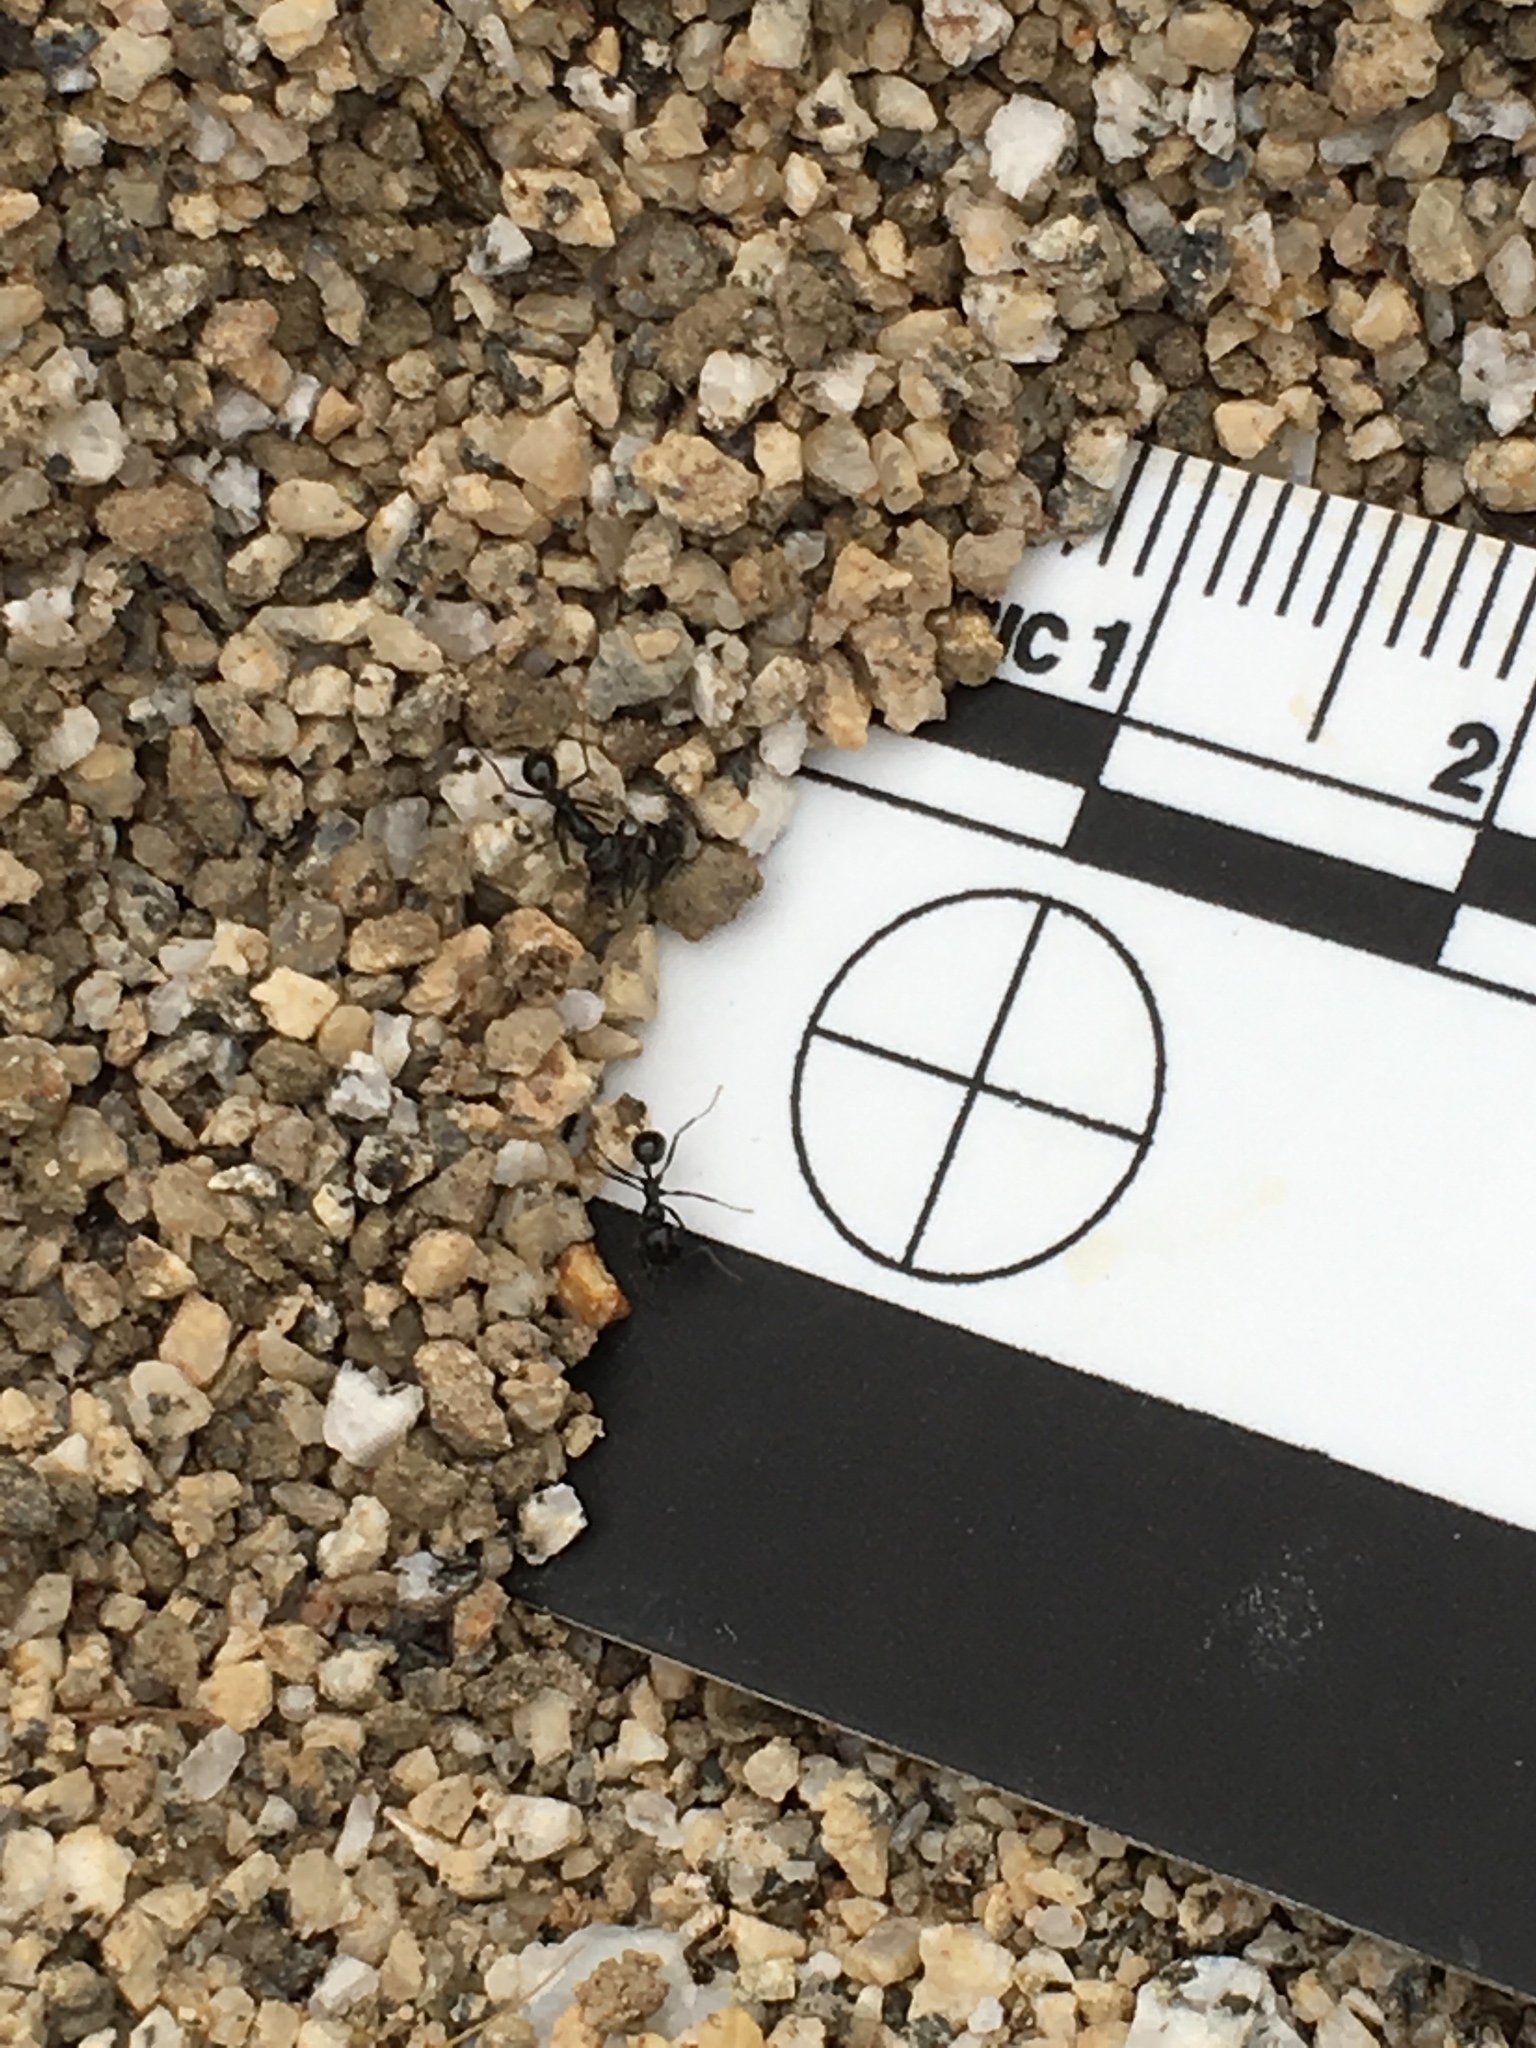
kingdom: Animalia
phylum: Arthropoda
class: Insecta
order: Hymenoptera
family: Formicidae
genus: Messor
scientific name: Messor pergandei
